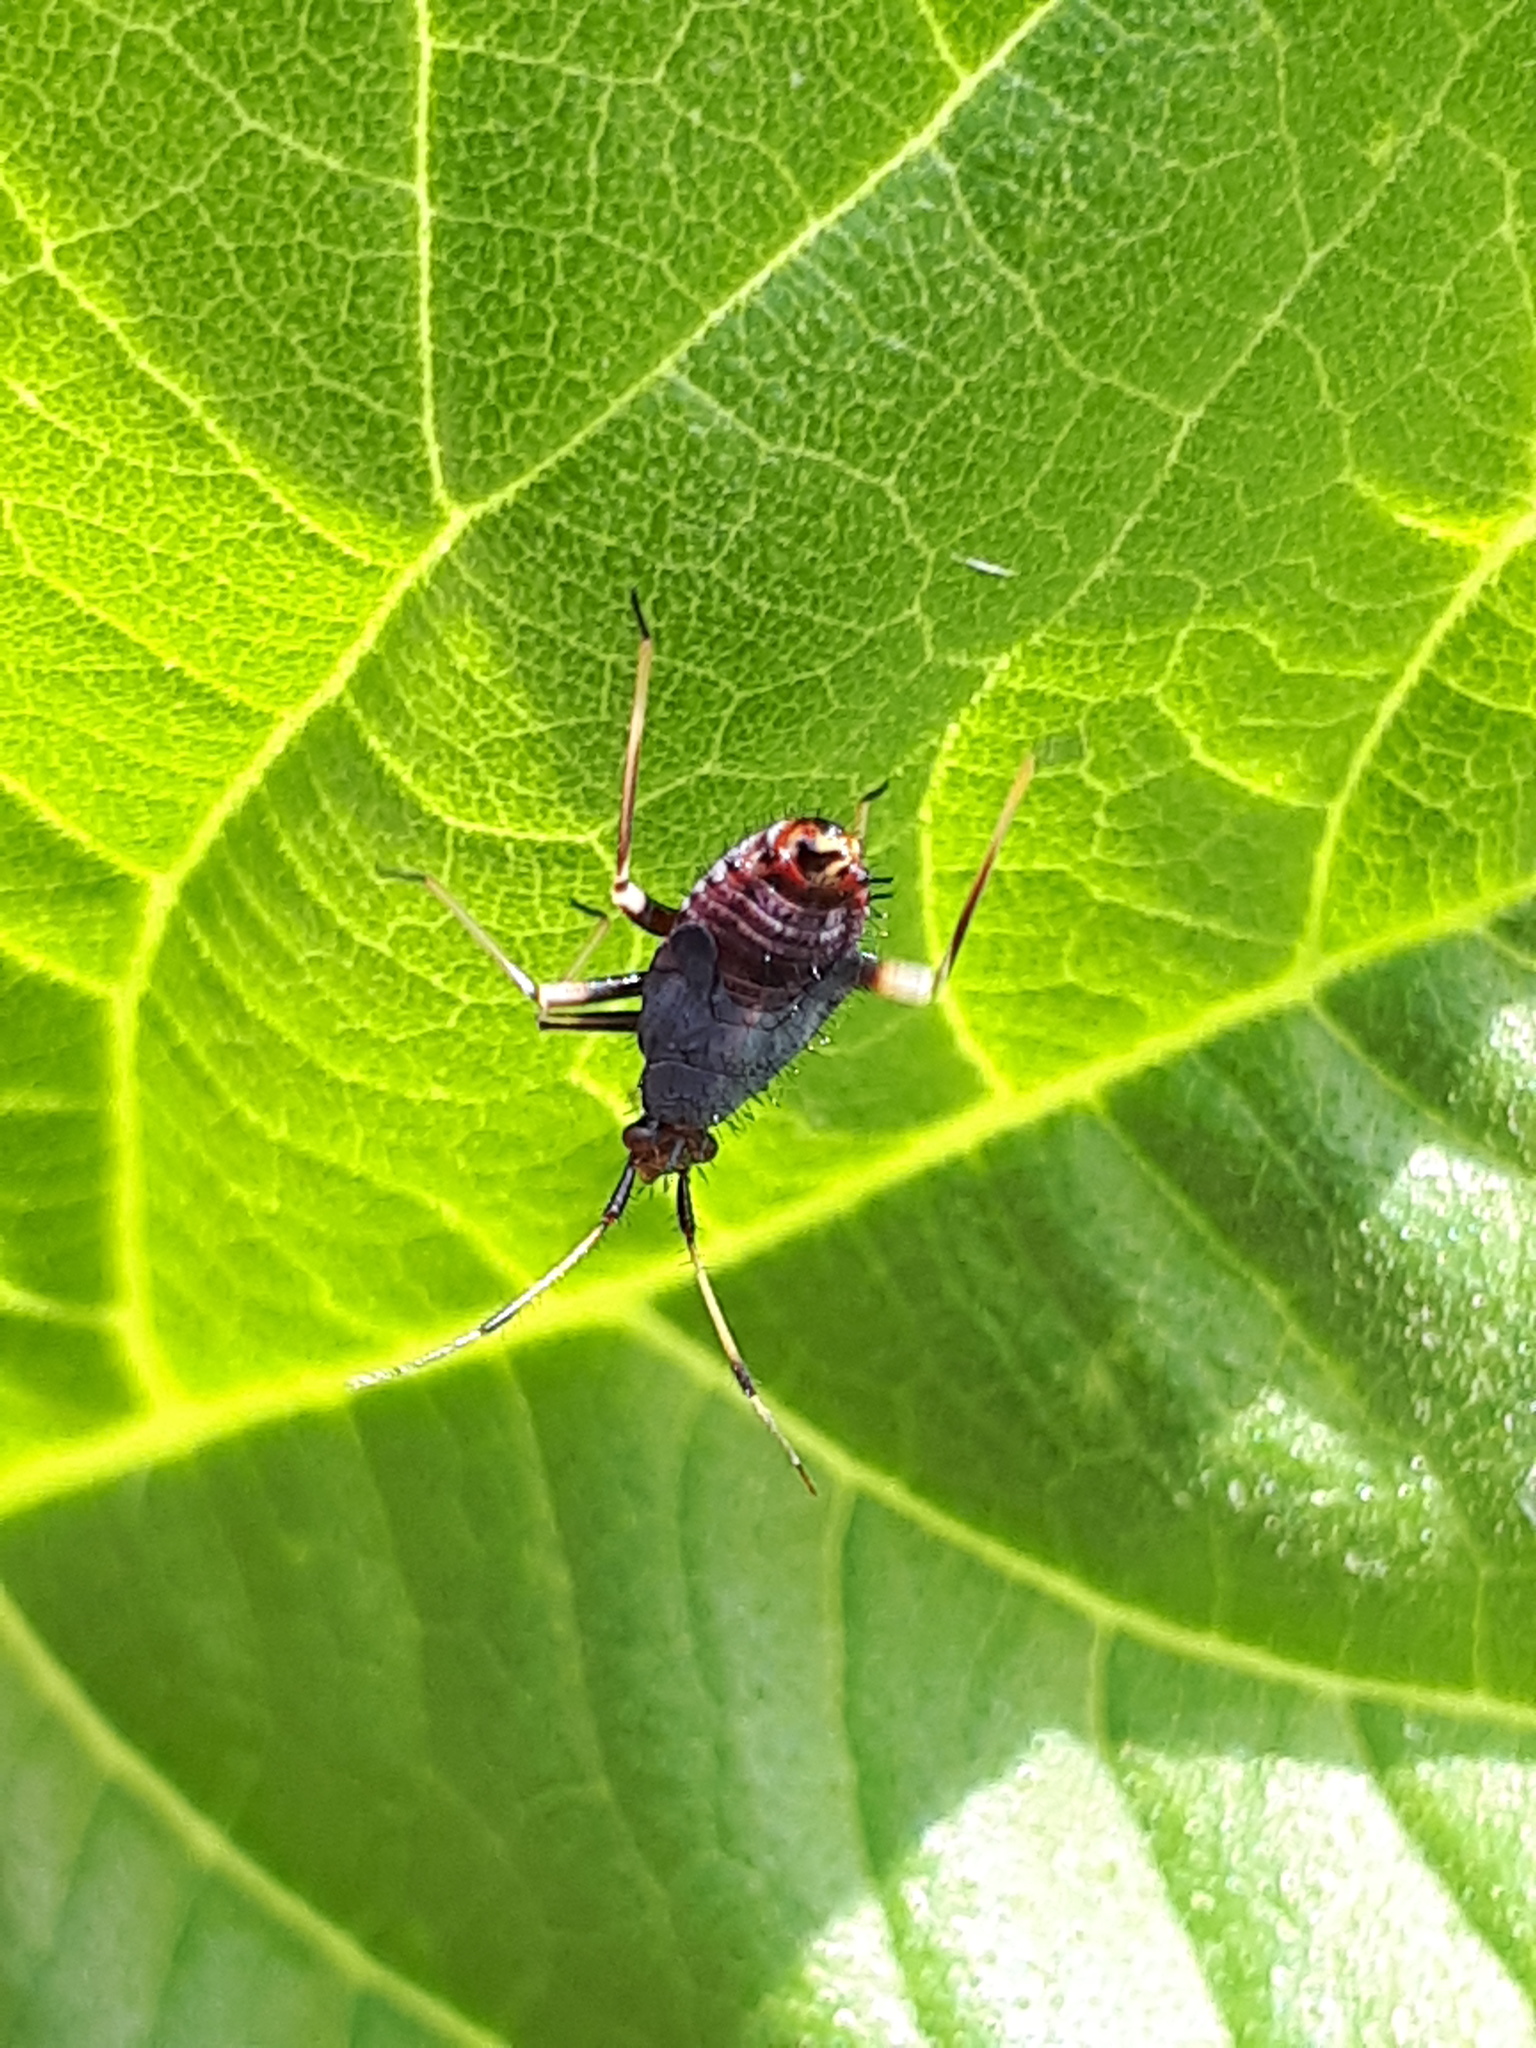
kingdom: Animalia
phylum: Arthropoda
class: Insecta
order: Hemiptera
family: Miridae
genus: Deraeocoris
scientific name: Deraeocoris ruber
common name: Plant bug
